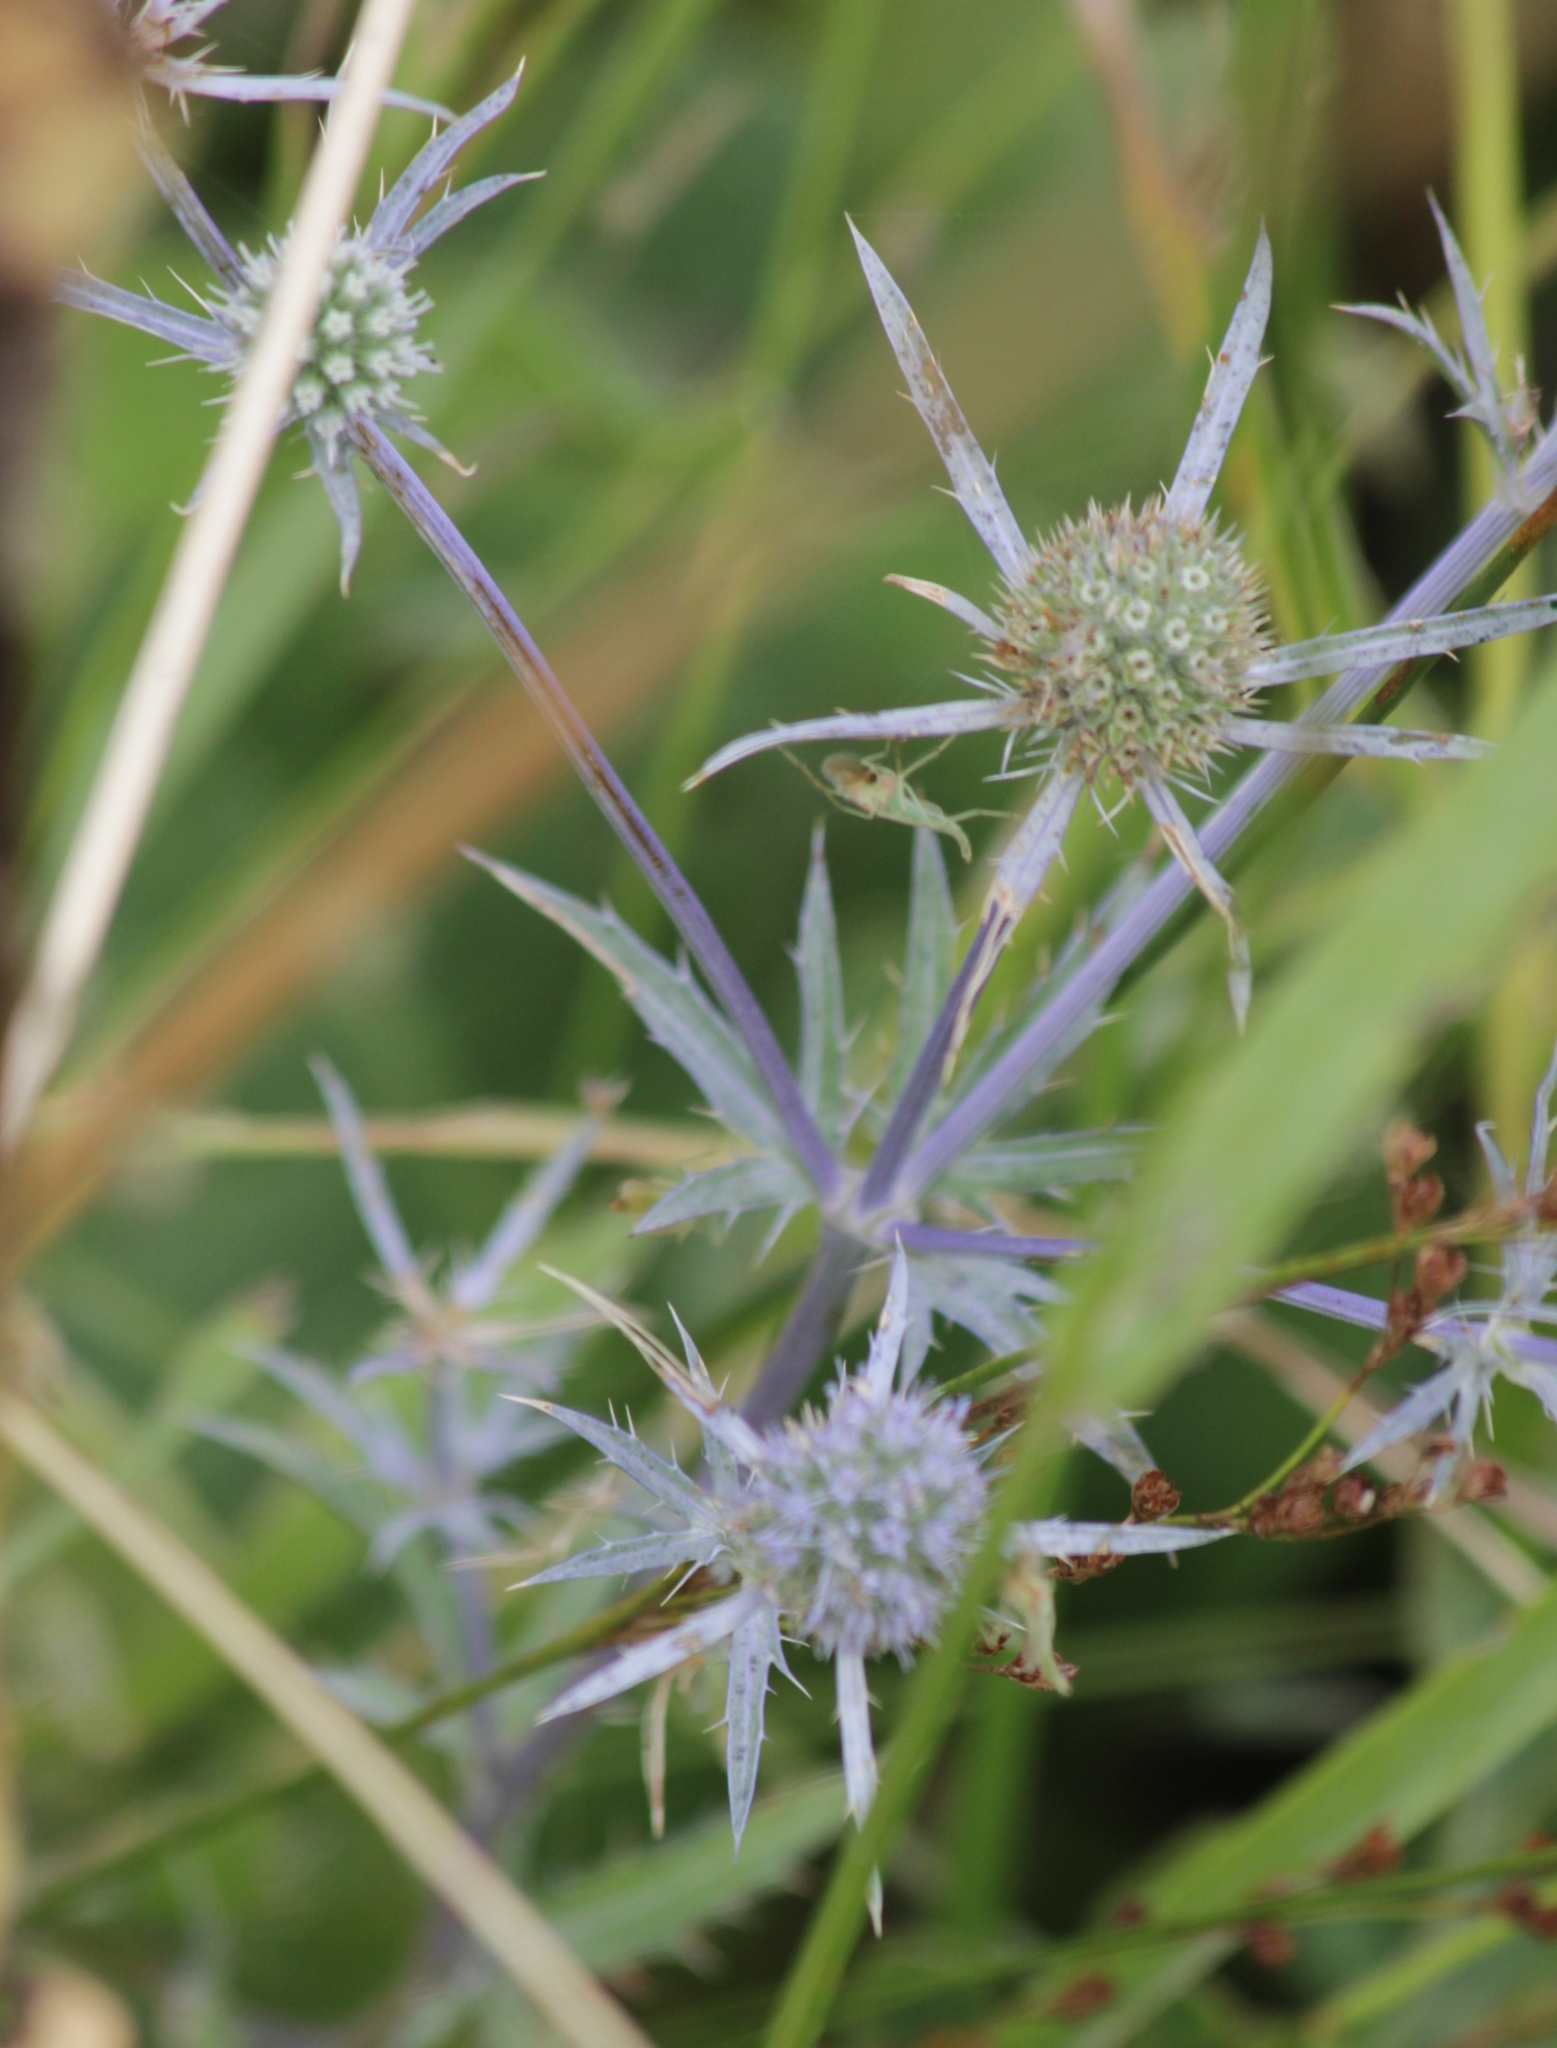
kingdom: Plantae
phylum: Tracheophyta
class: Magnoliopsida
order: Apiales
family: Apiaceae
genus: Eryngium
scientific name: Eryngium planum
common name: Blue eryngo
